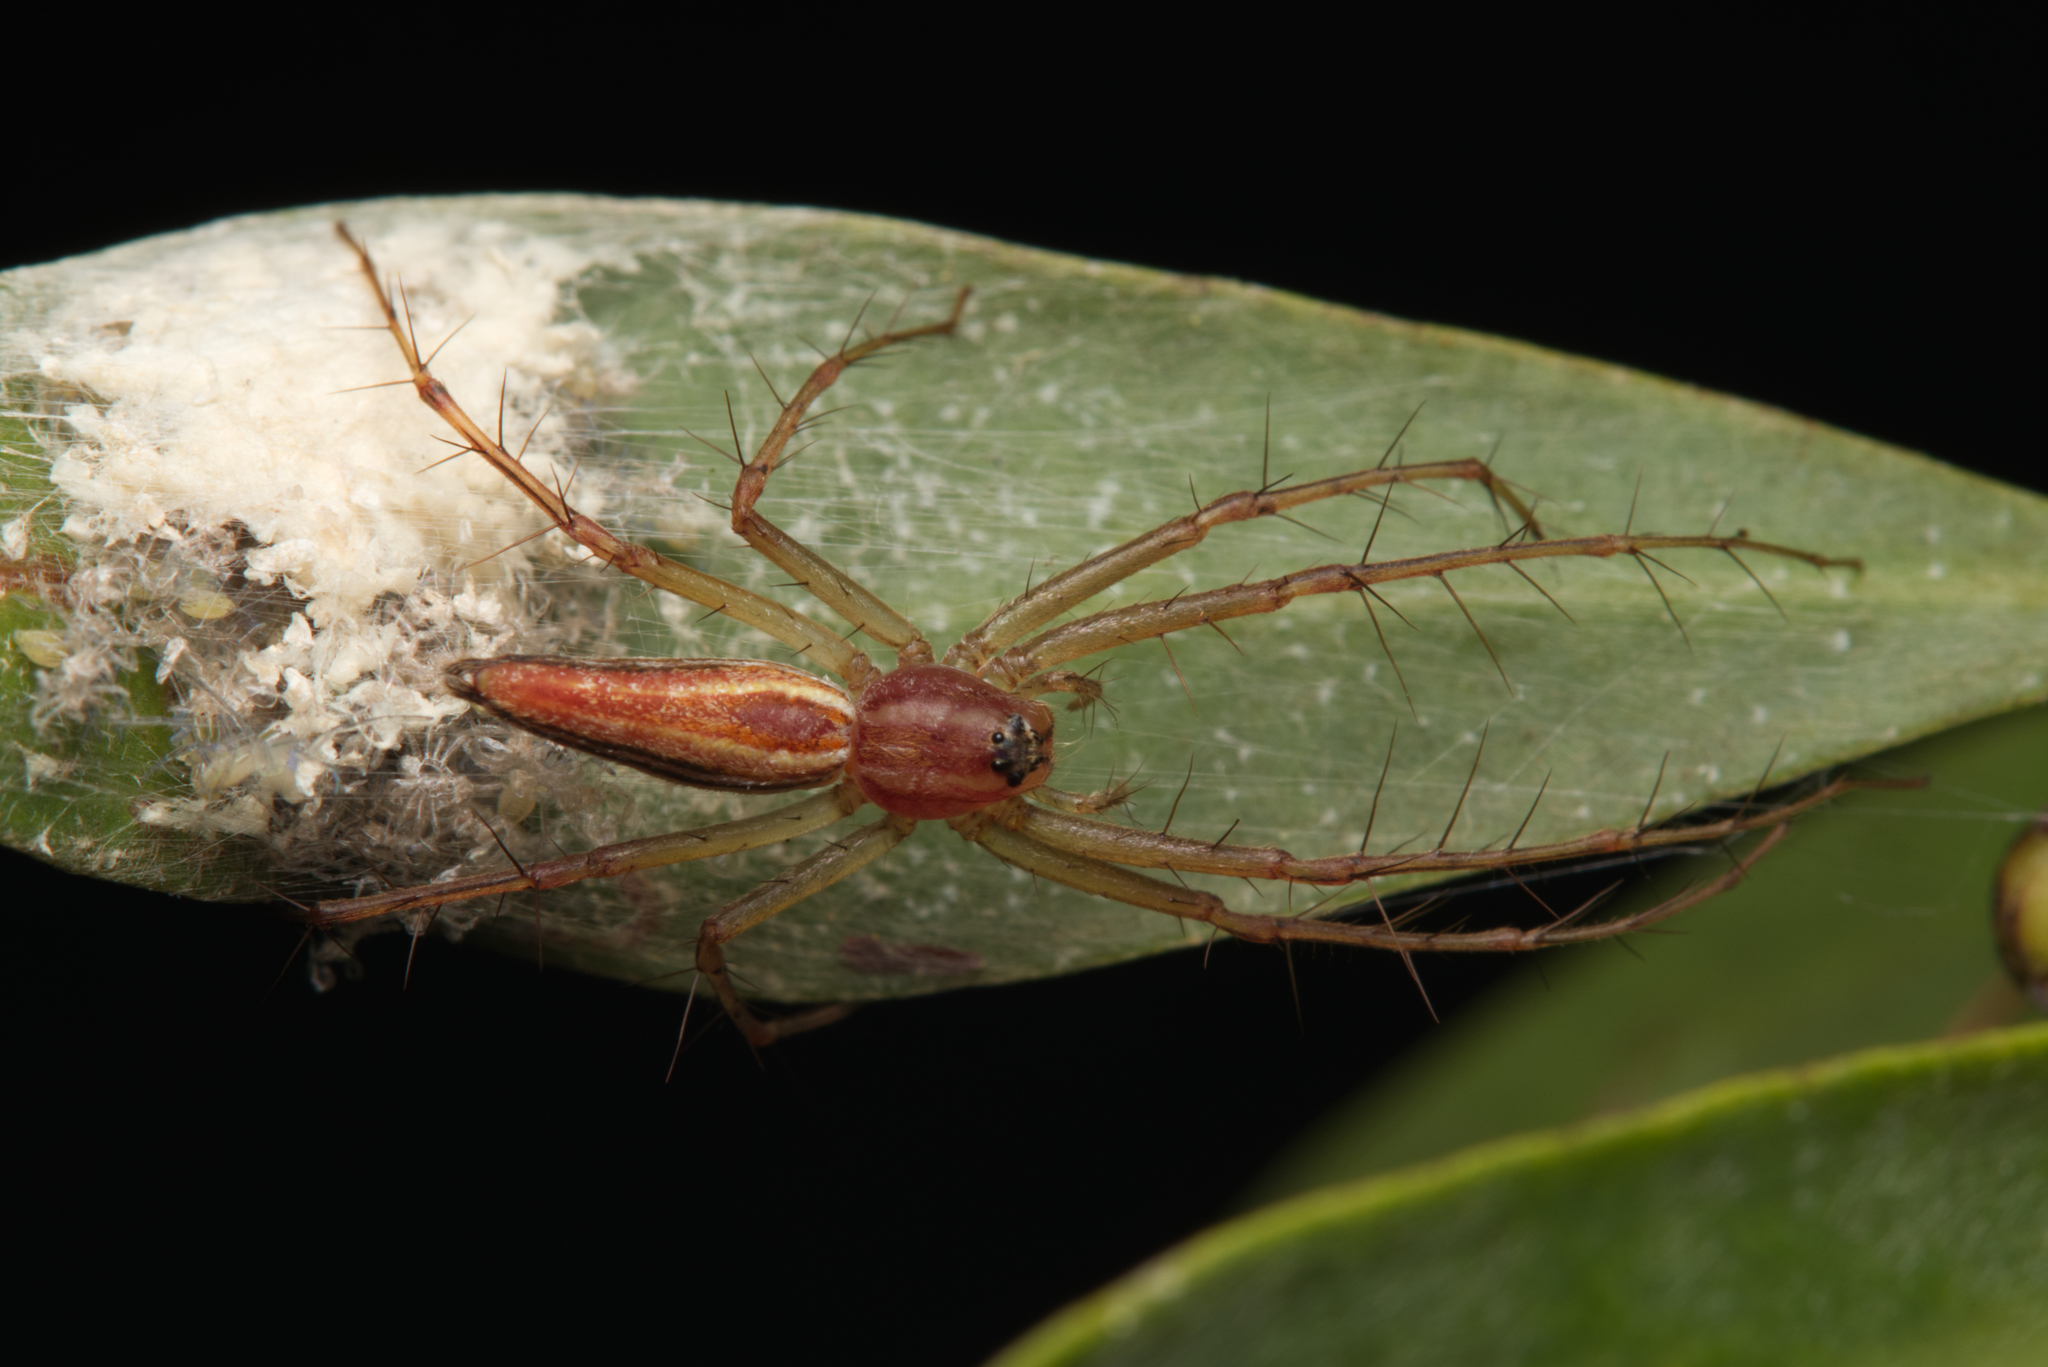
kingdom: Animalia
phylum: Arthropoda
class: Arachnida
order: Araneae
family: Oxyopidae
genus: Oxyopes
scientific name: Oxyopes macilentus
